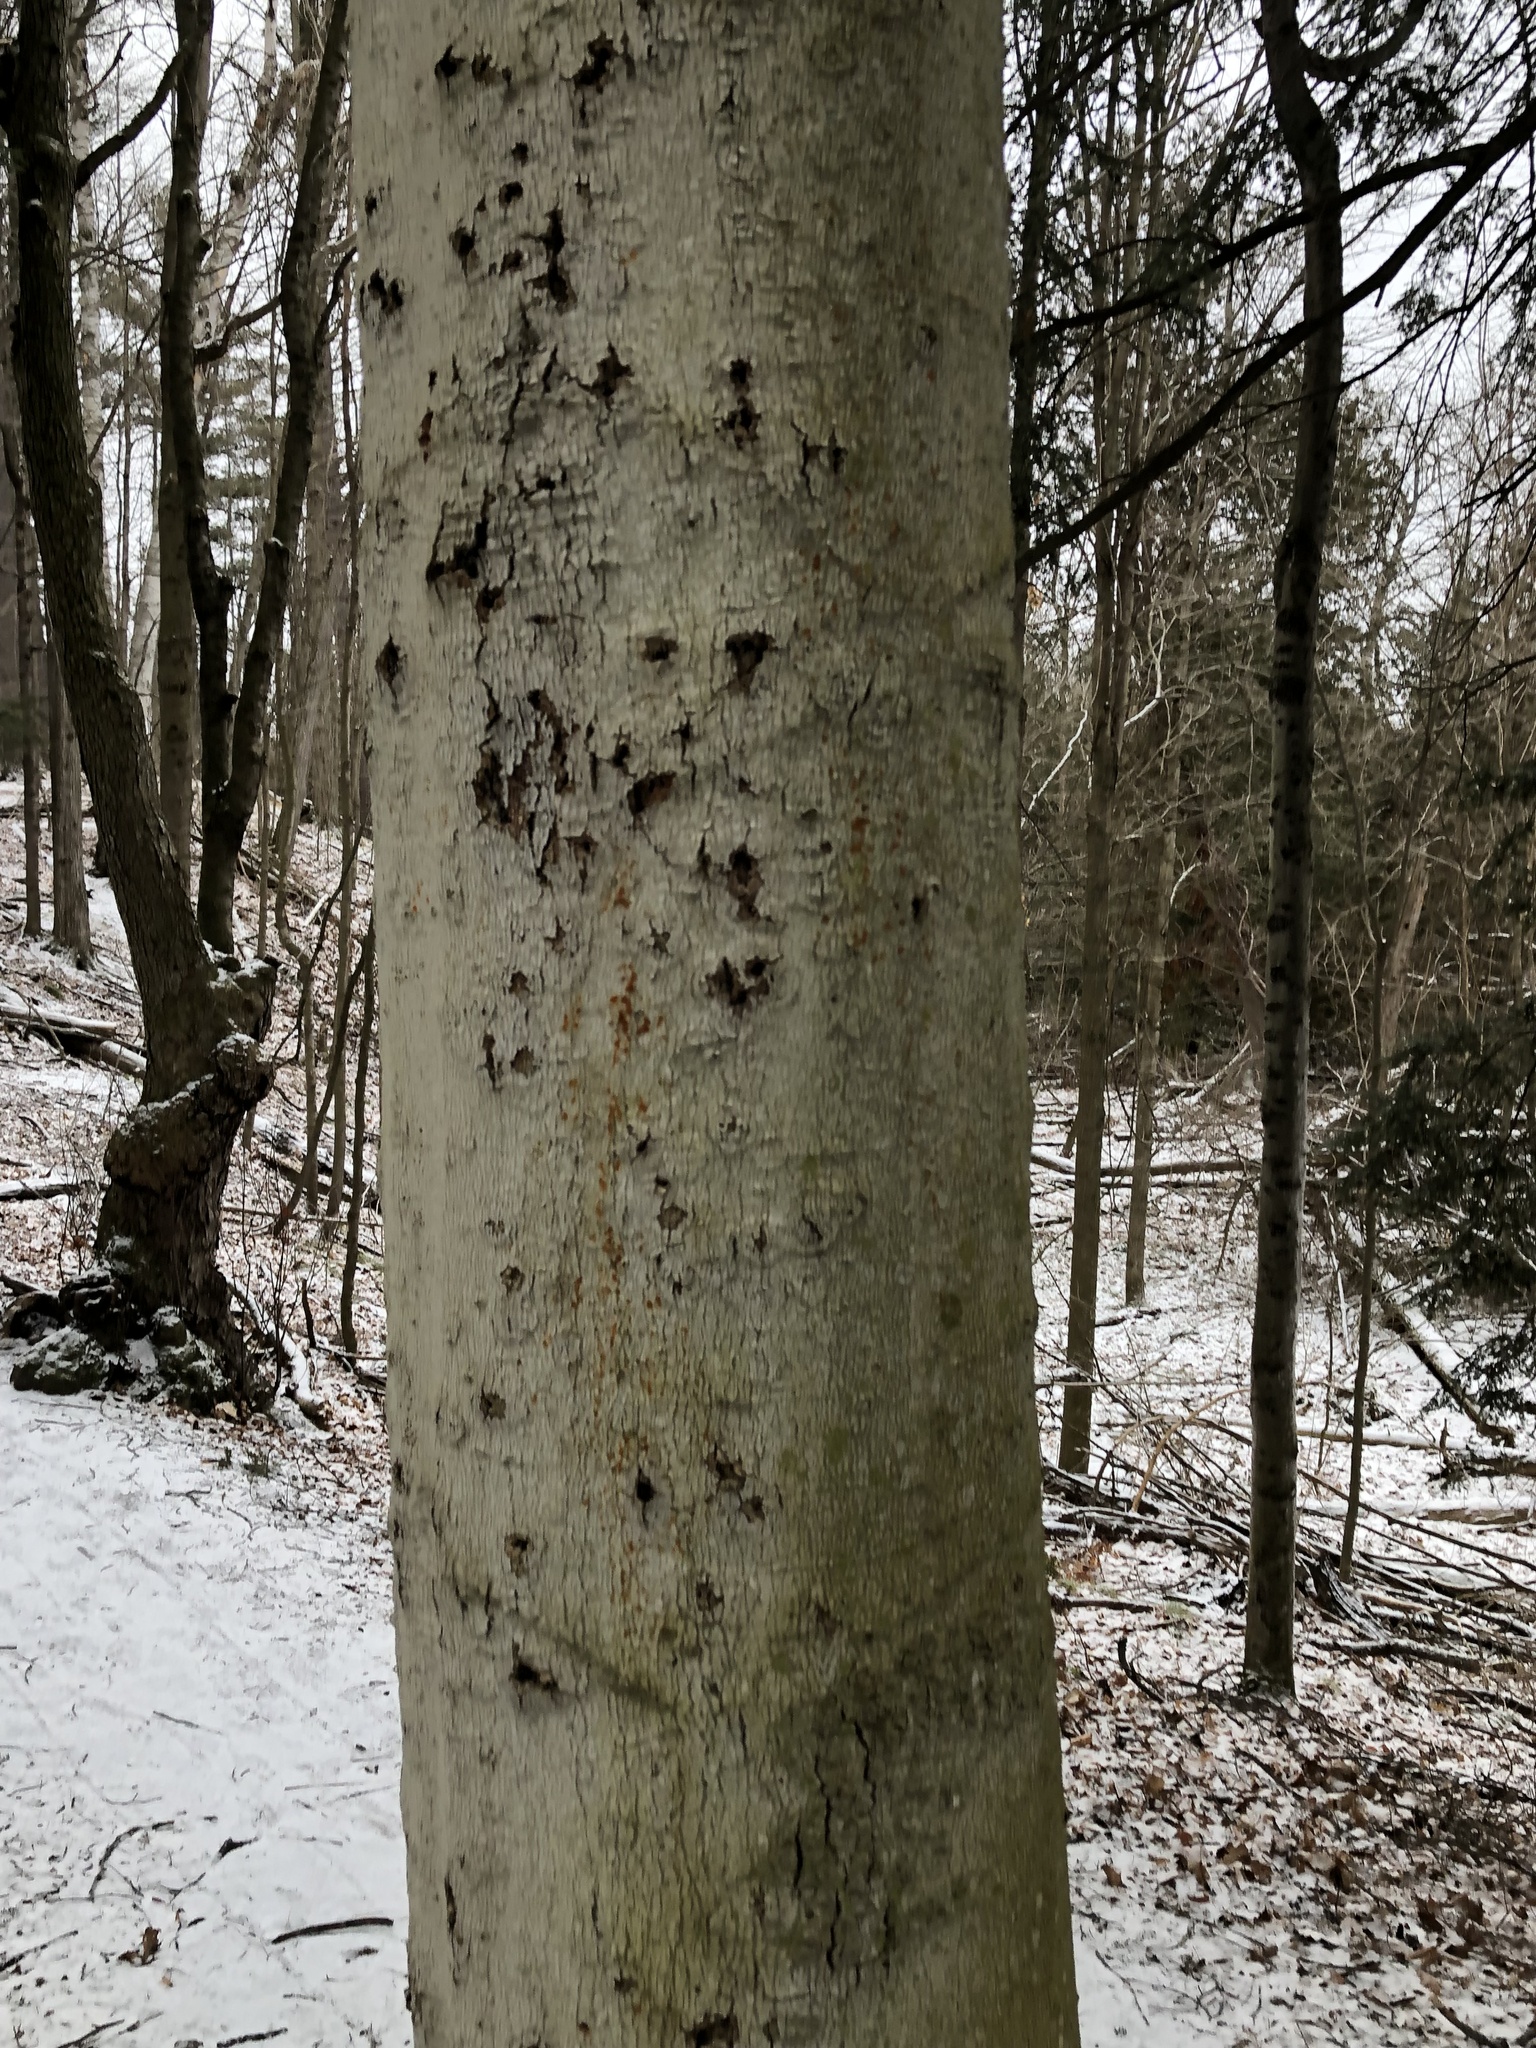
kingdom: Plantae
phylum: Tracheophyta
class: Magnoliopsida
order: Fagales
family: Fagaceae
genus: Fagus
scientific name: Fagus grandifolia
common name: American beech
